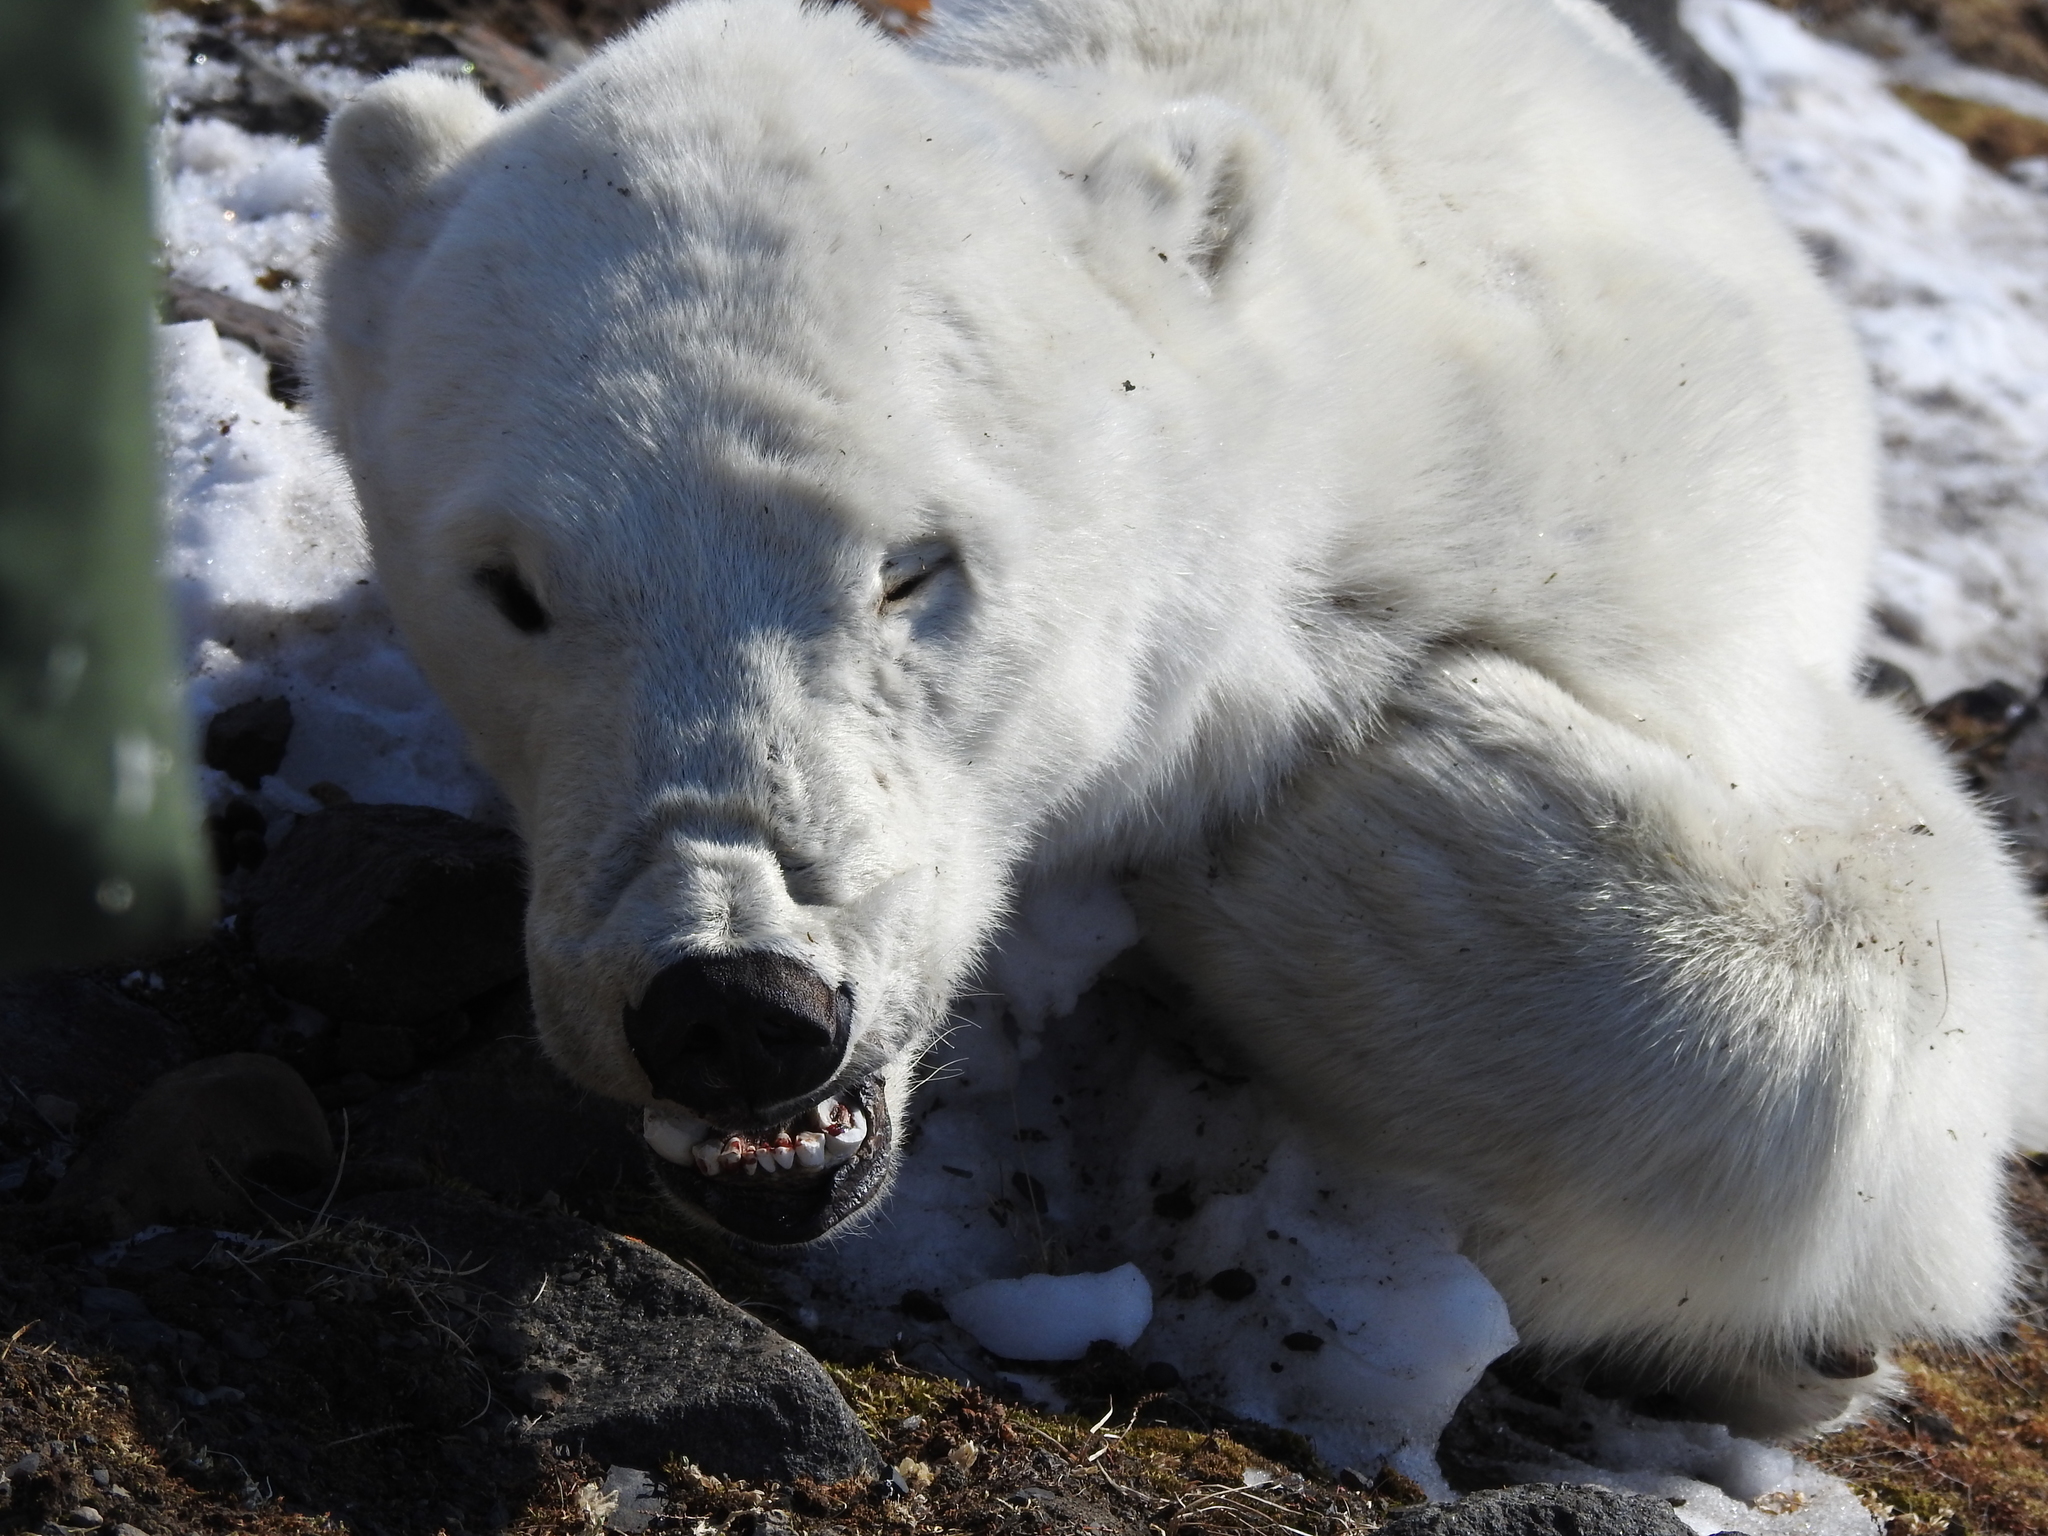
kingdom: Animalia
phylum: Chordata
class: Mammalia
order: Carnivora
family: Ursidae
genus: Ursus
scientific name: Ursus maritimus
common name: Polar bear
